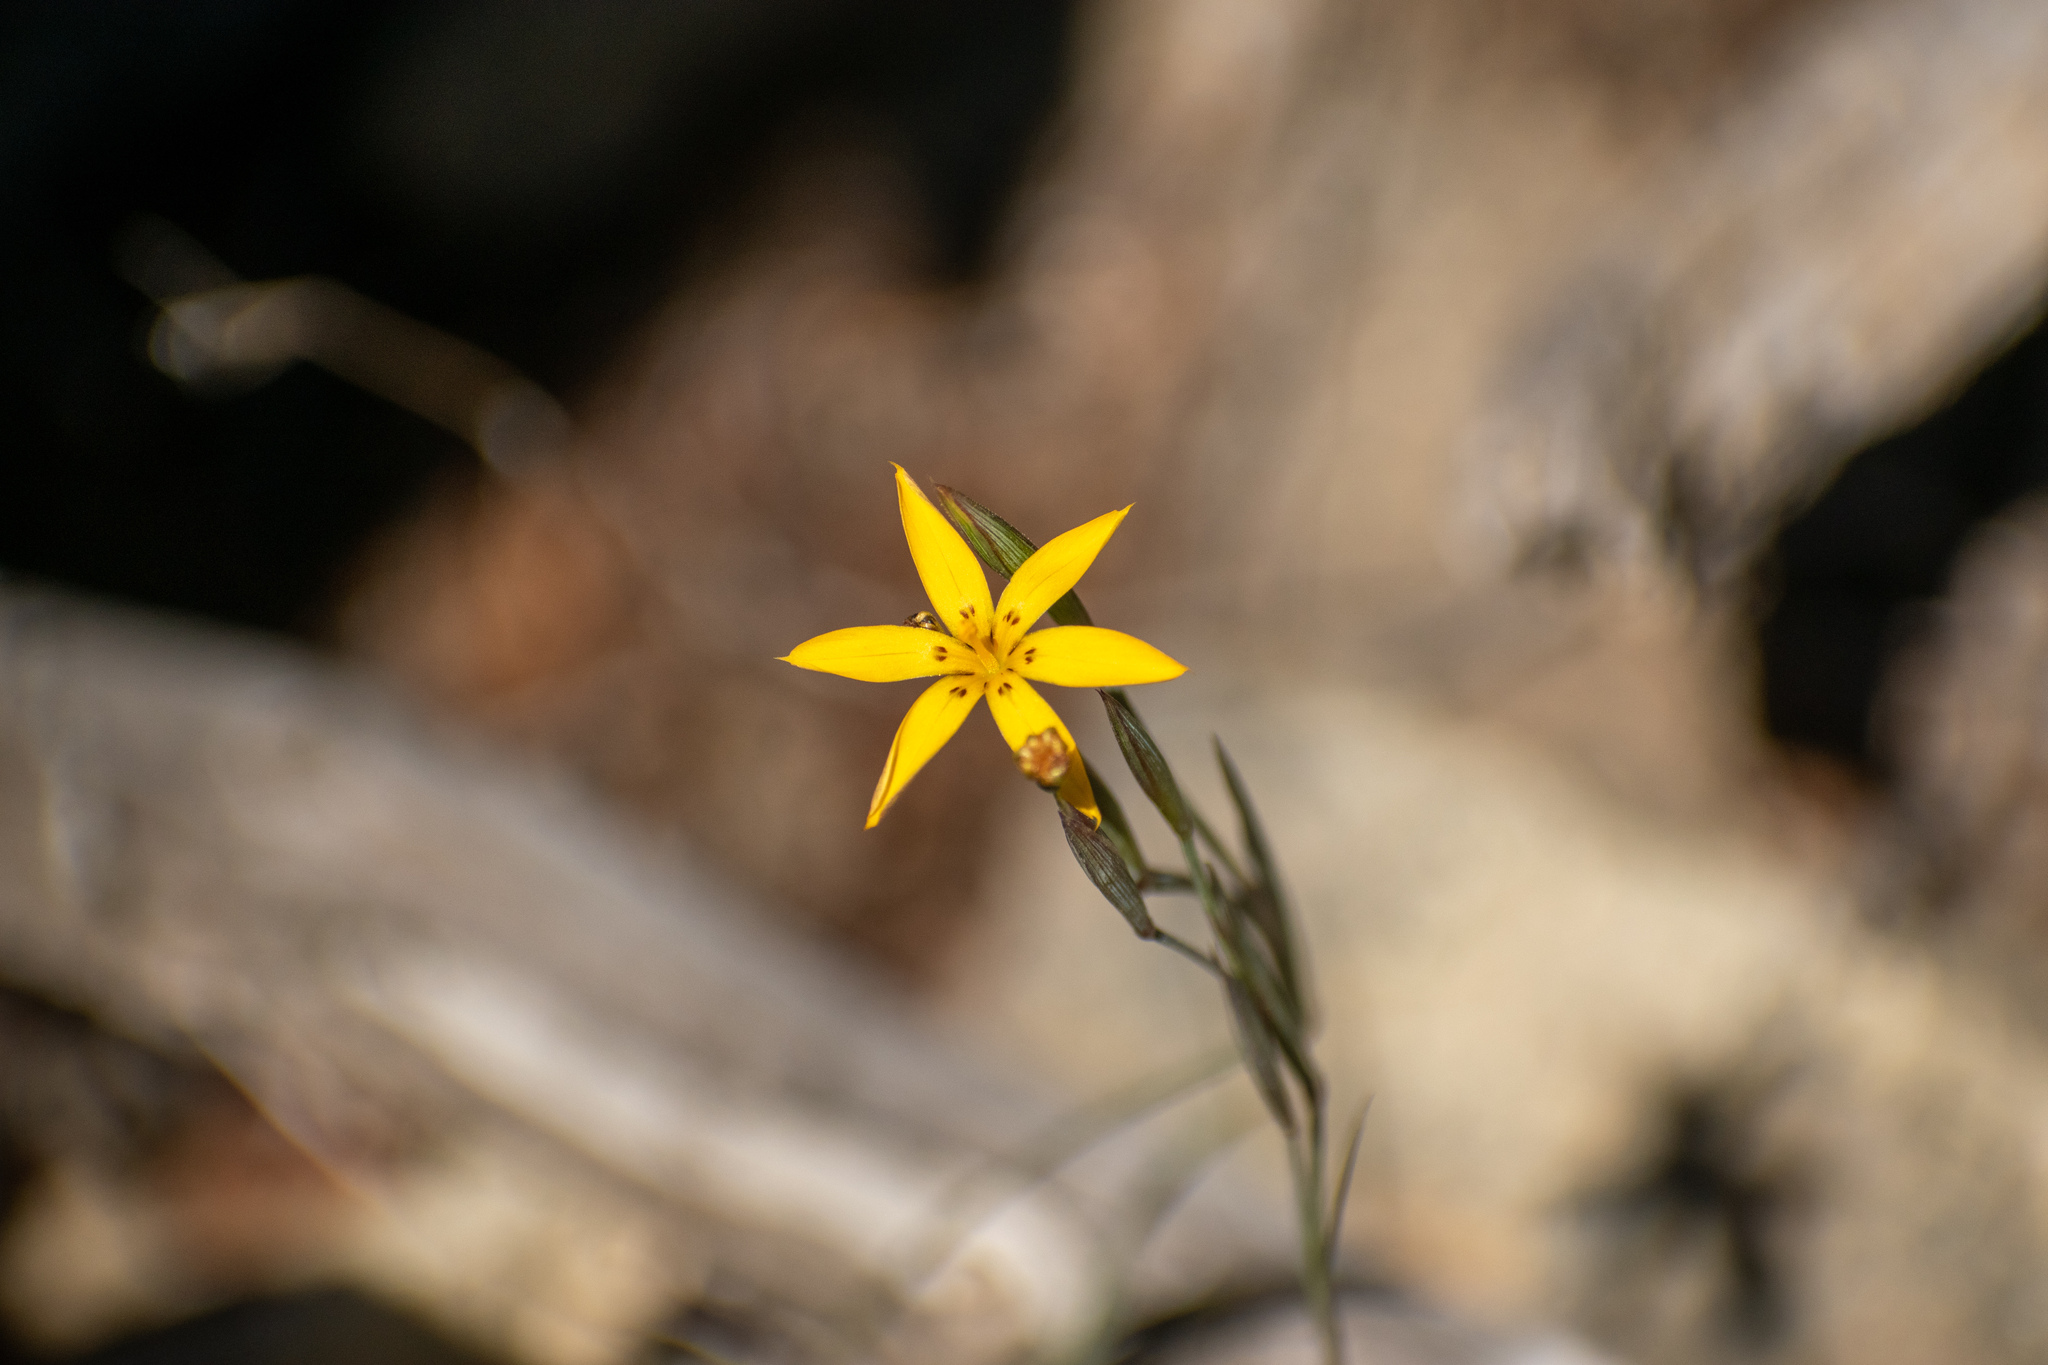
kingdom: Plantae
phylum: Tracheophyta
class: Liliopsida
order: Asparagales
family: Iridaceae
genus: Sisyrinchium
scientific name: Sisyrinchium patagonicum
